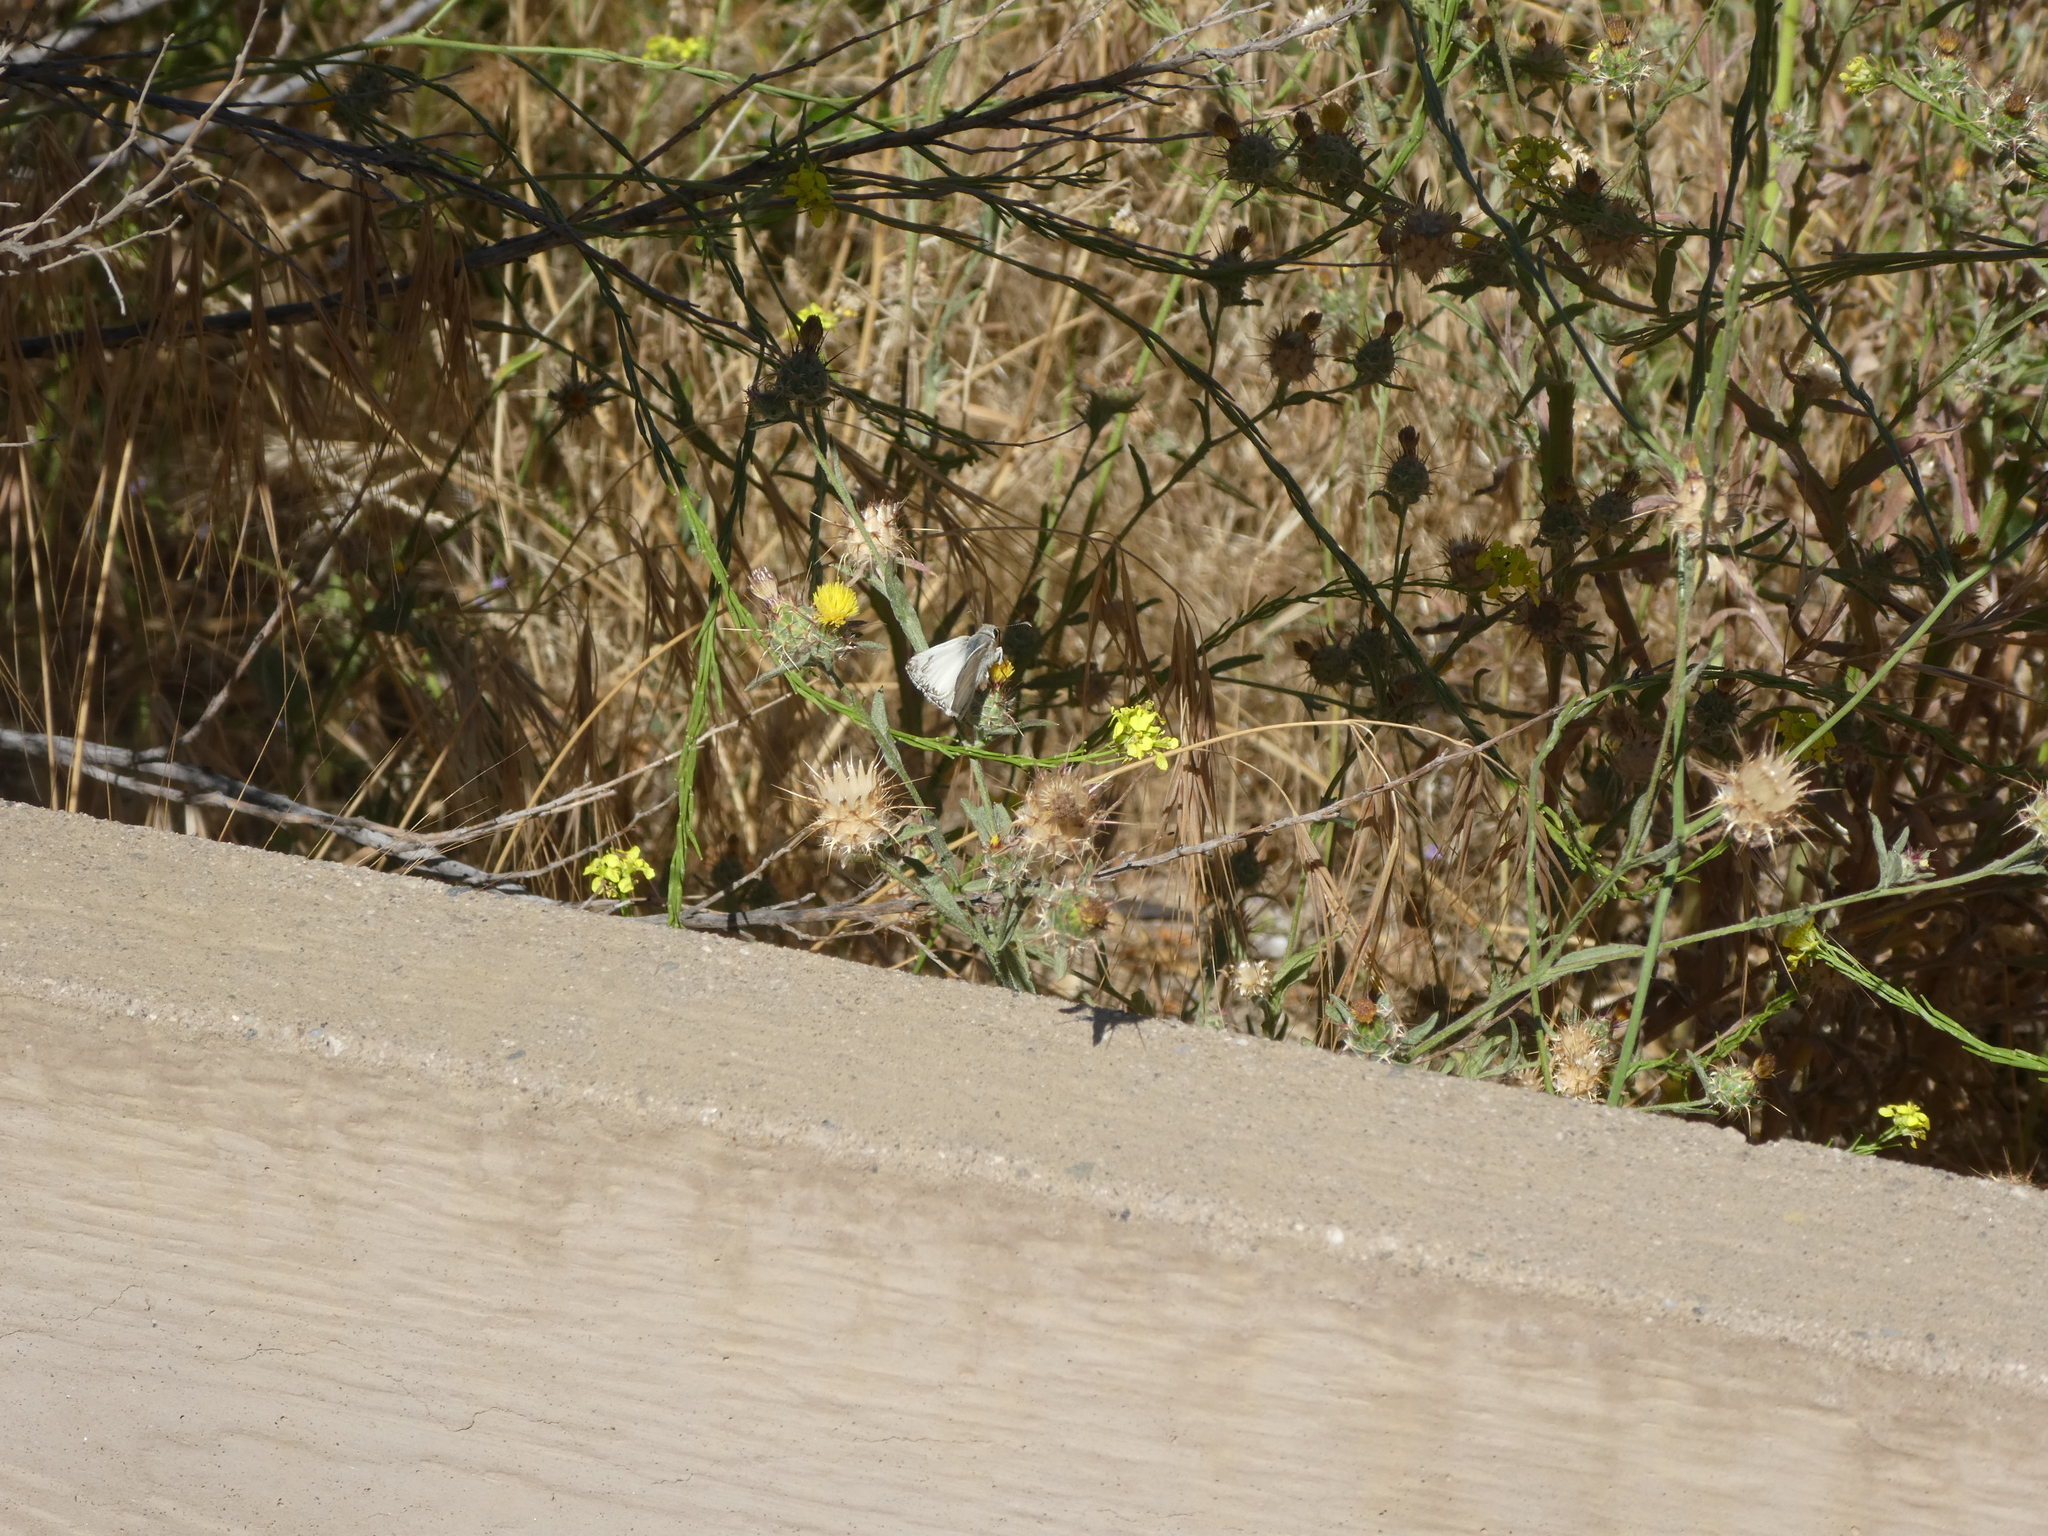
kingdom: Animalia
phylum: Arthropoda
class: Insecta
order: Lepidoptera
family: Hesperiidae
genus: Heliopetes
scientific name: Heliopetes ericetorum
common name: Northern white-skipper
